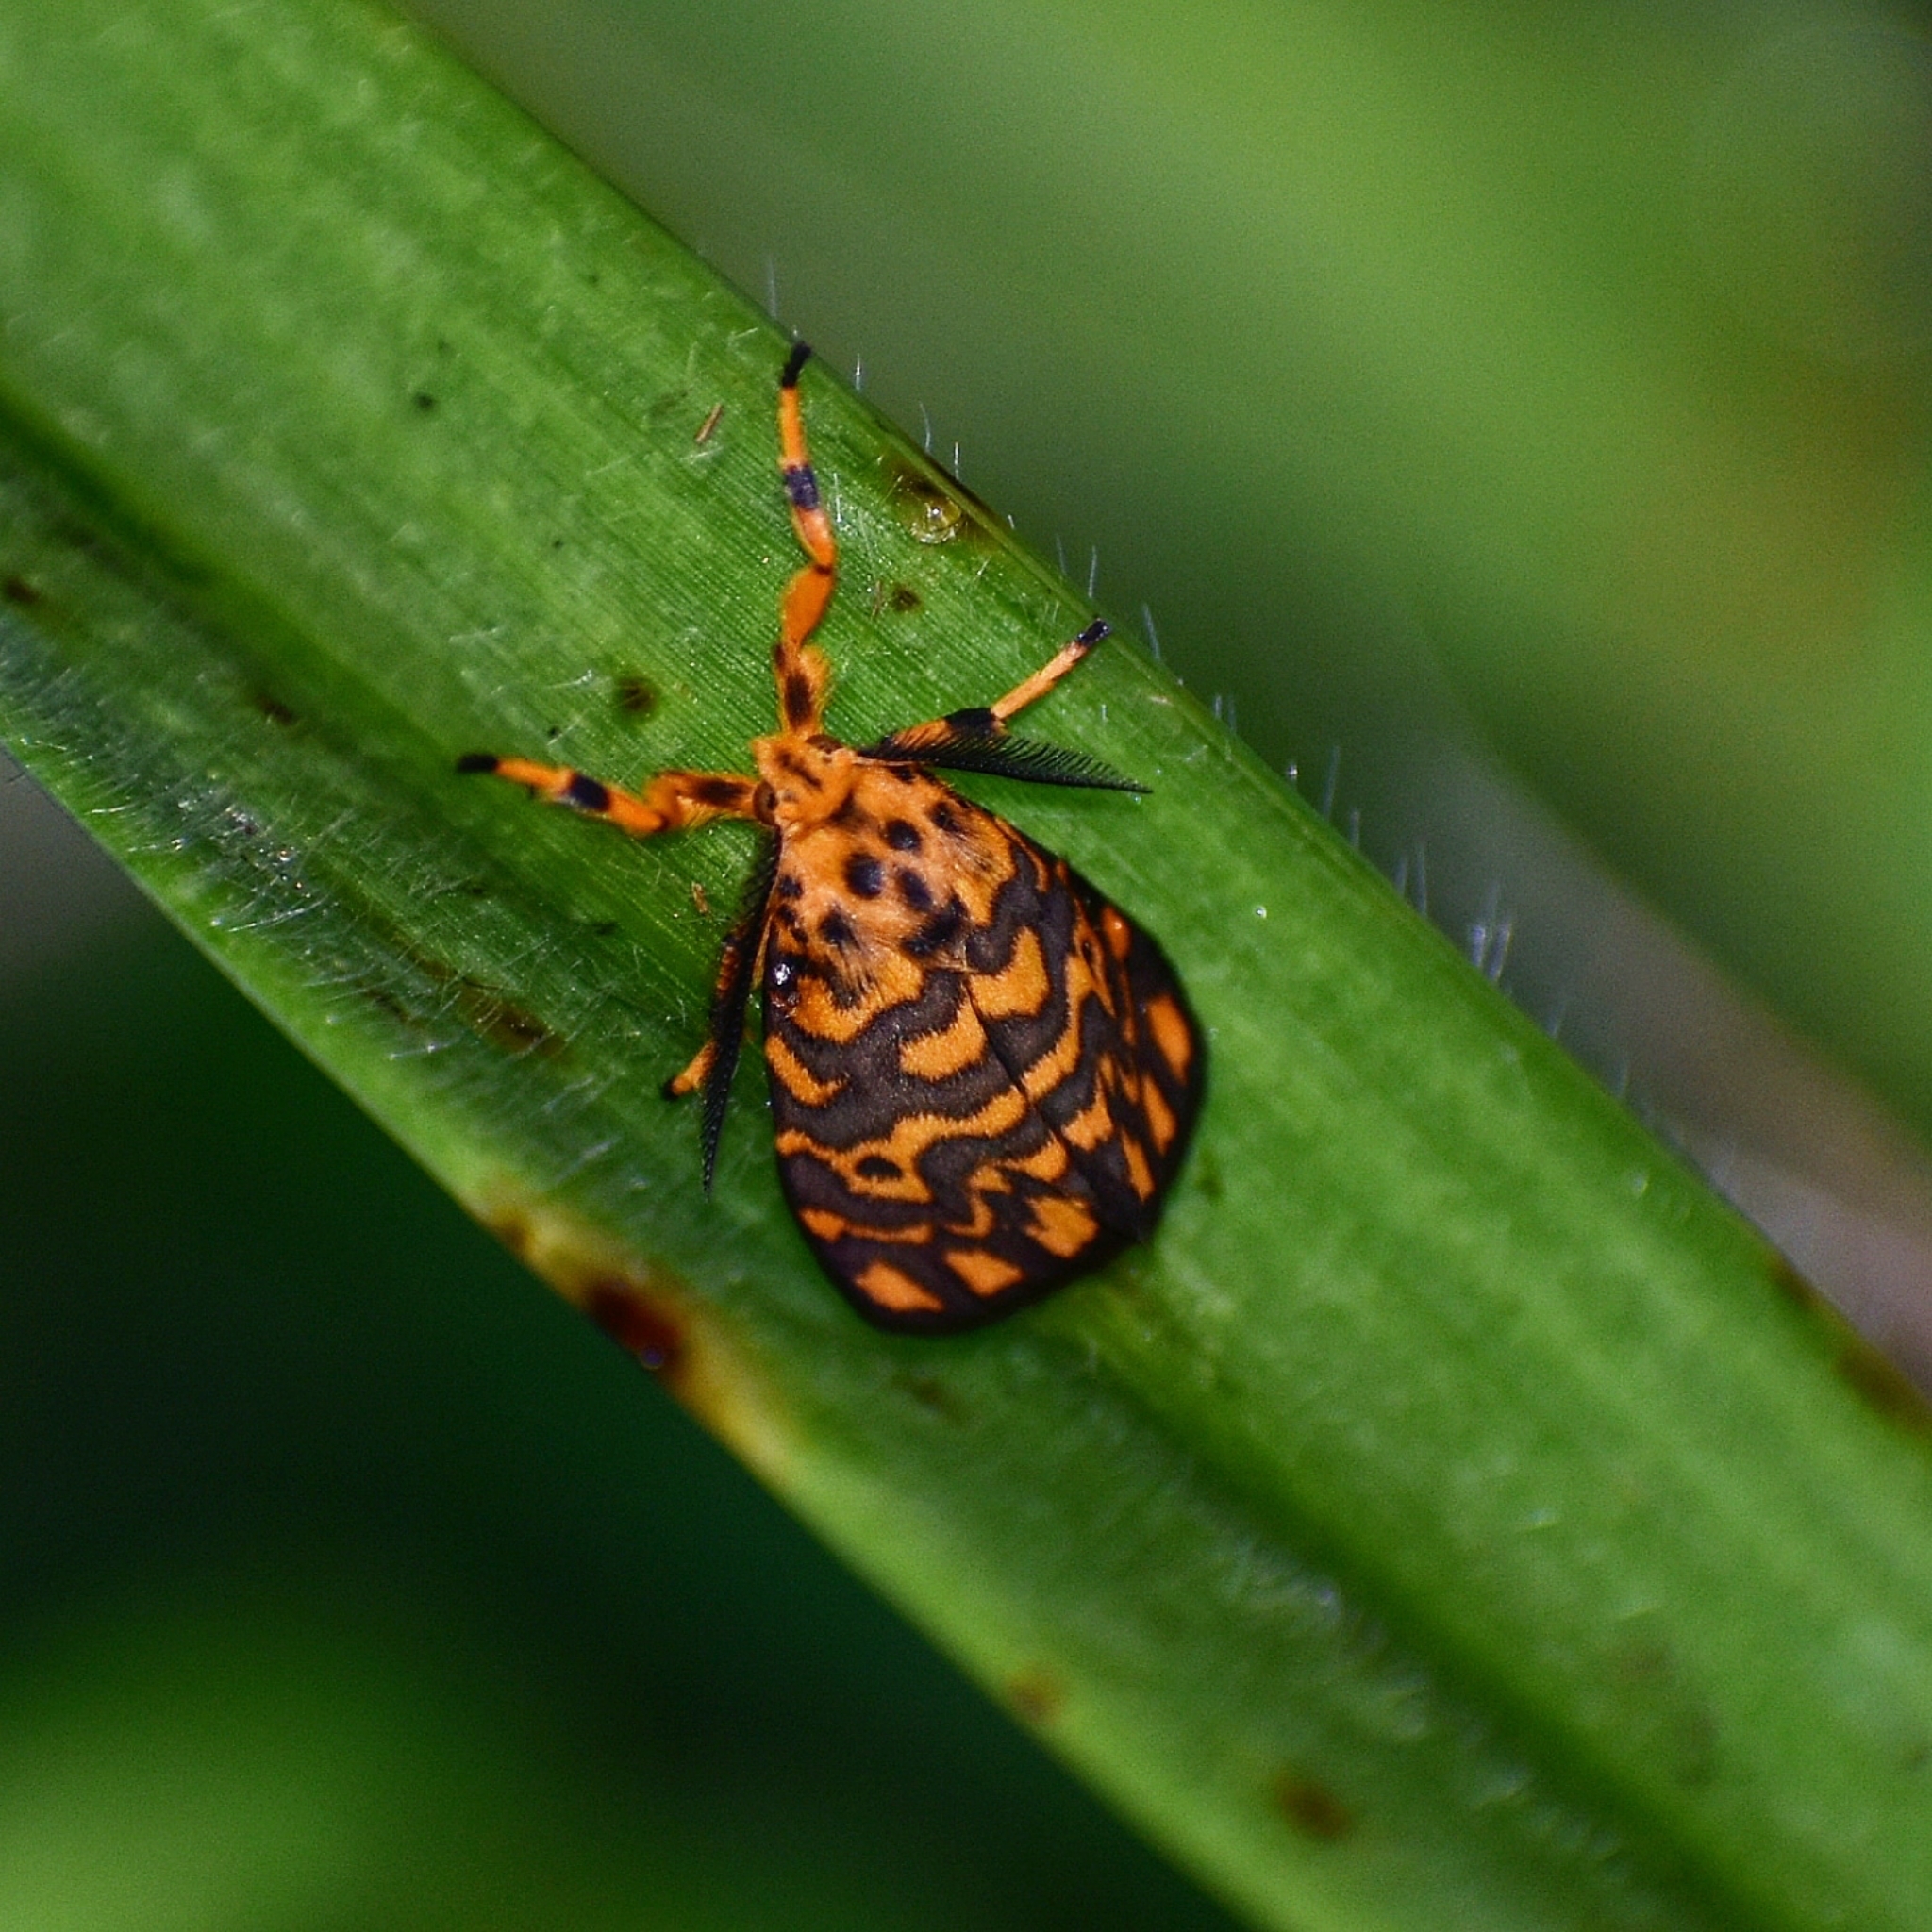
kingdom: Animalia
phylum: Arthropoda
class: Insecta
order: Lepidoptera
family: Erebidae
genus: Nepita
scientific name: Nepita conferta
